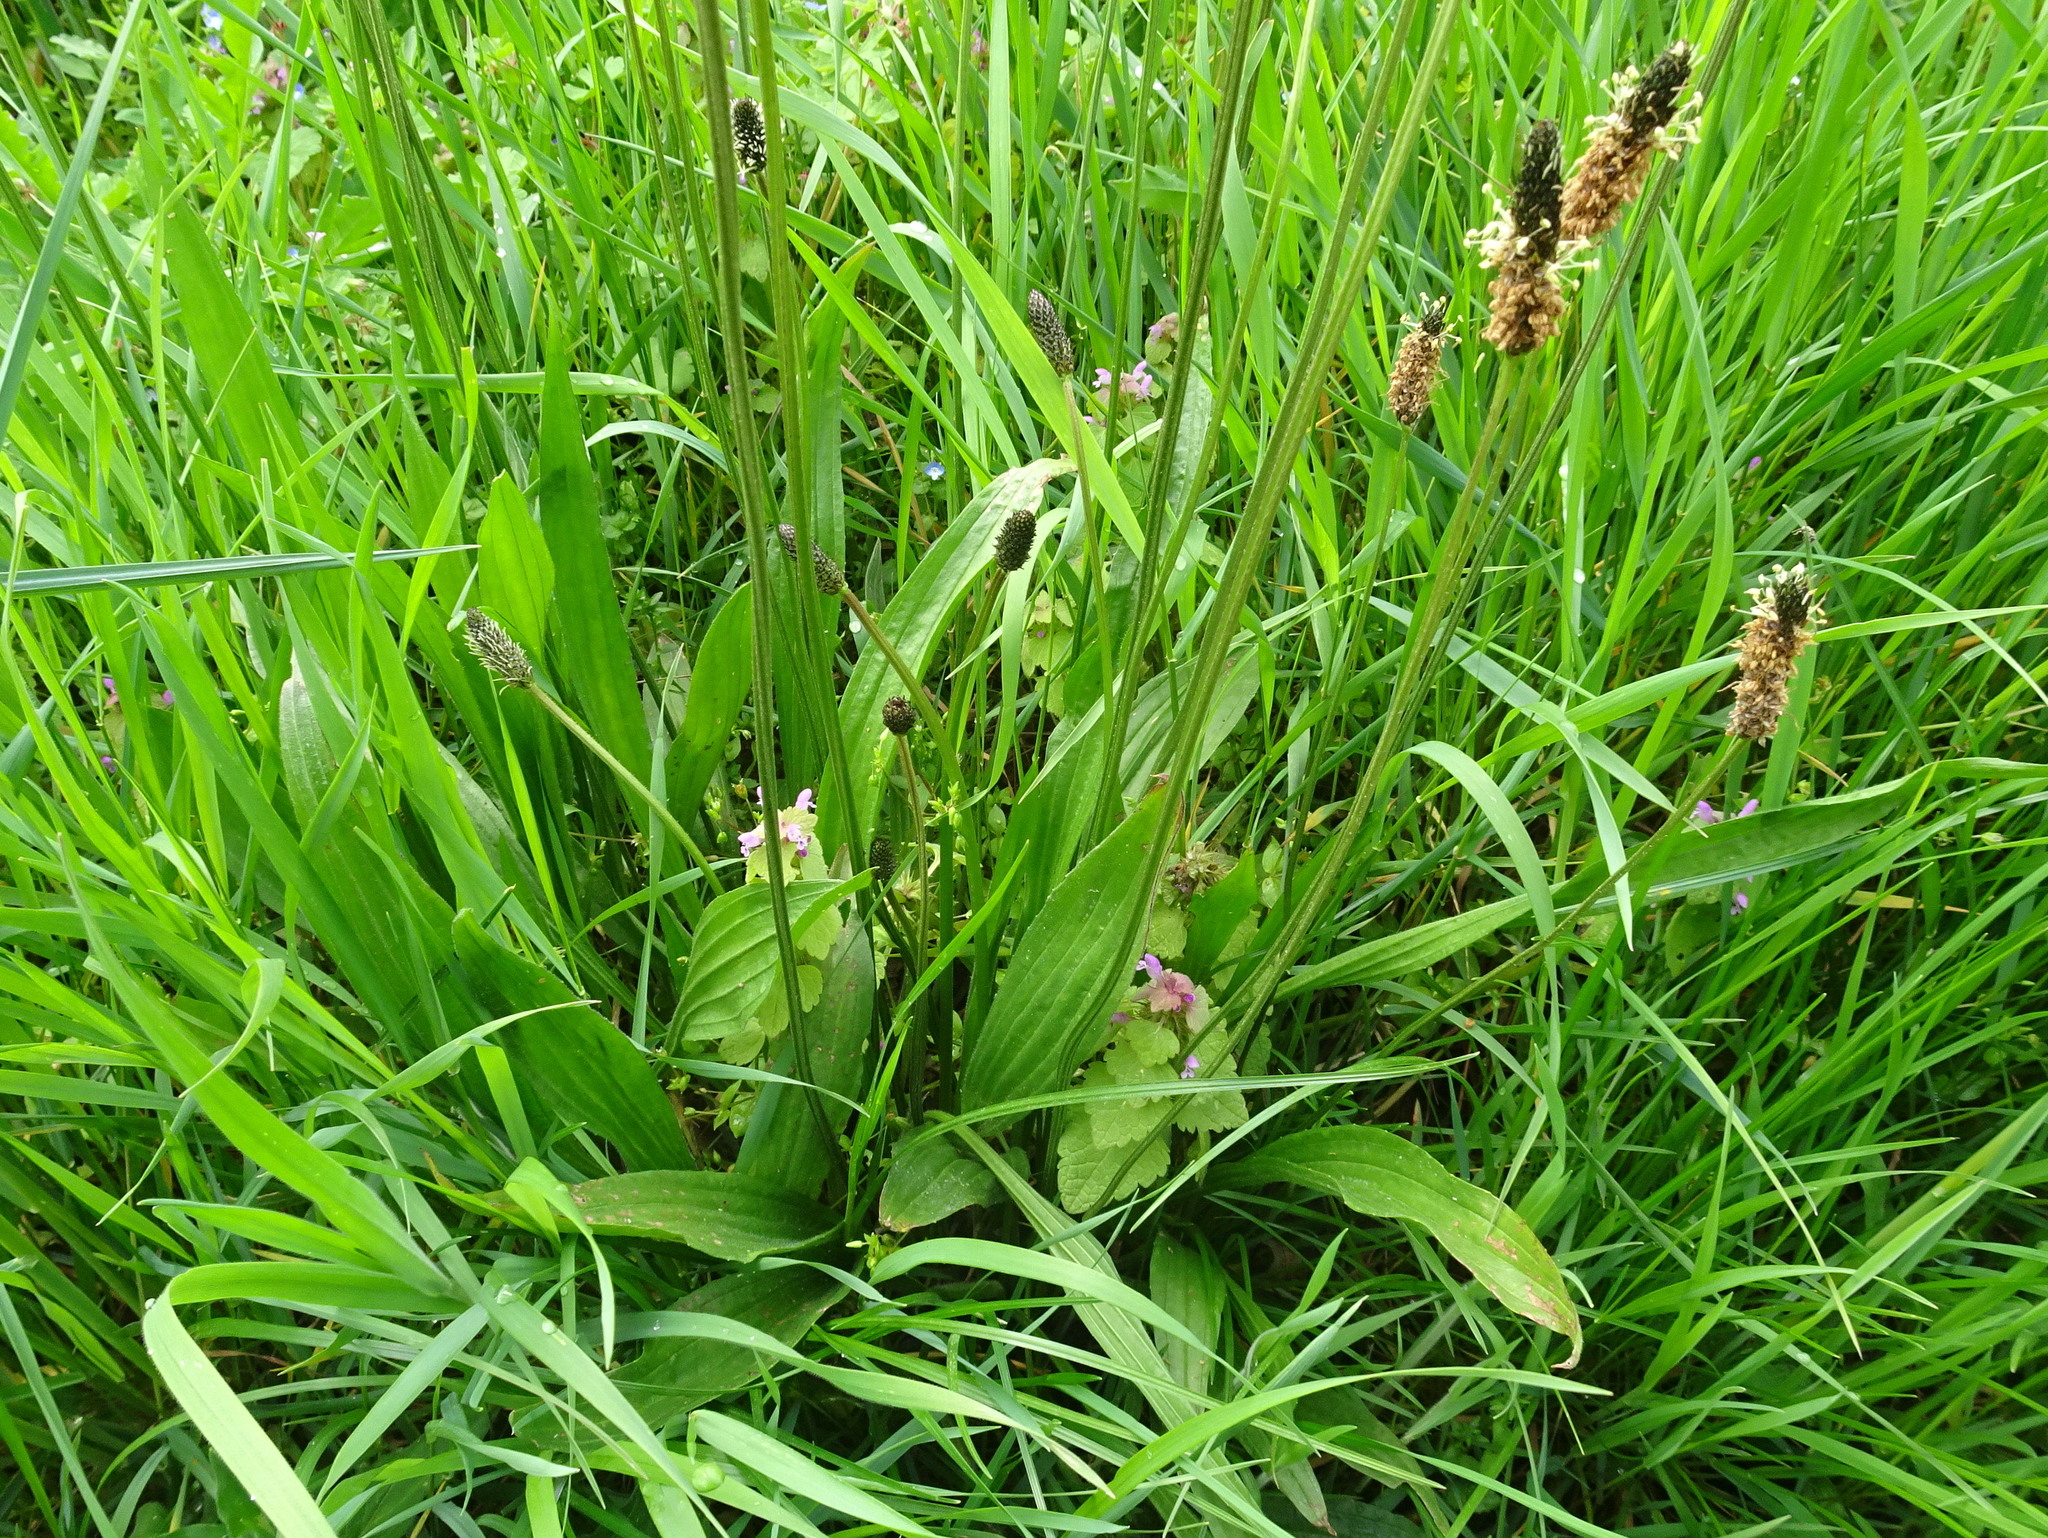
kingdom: Plantae
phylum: Tracheophyta
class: Magnoliopsida
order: Lamiales
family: Plantaginaceae
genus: Plantago
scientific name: Plantago lanceolata
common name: Ribwort plantain
